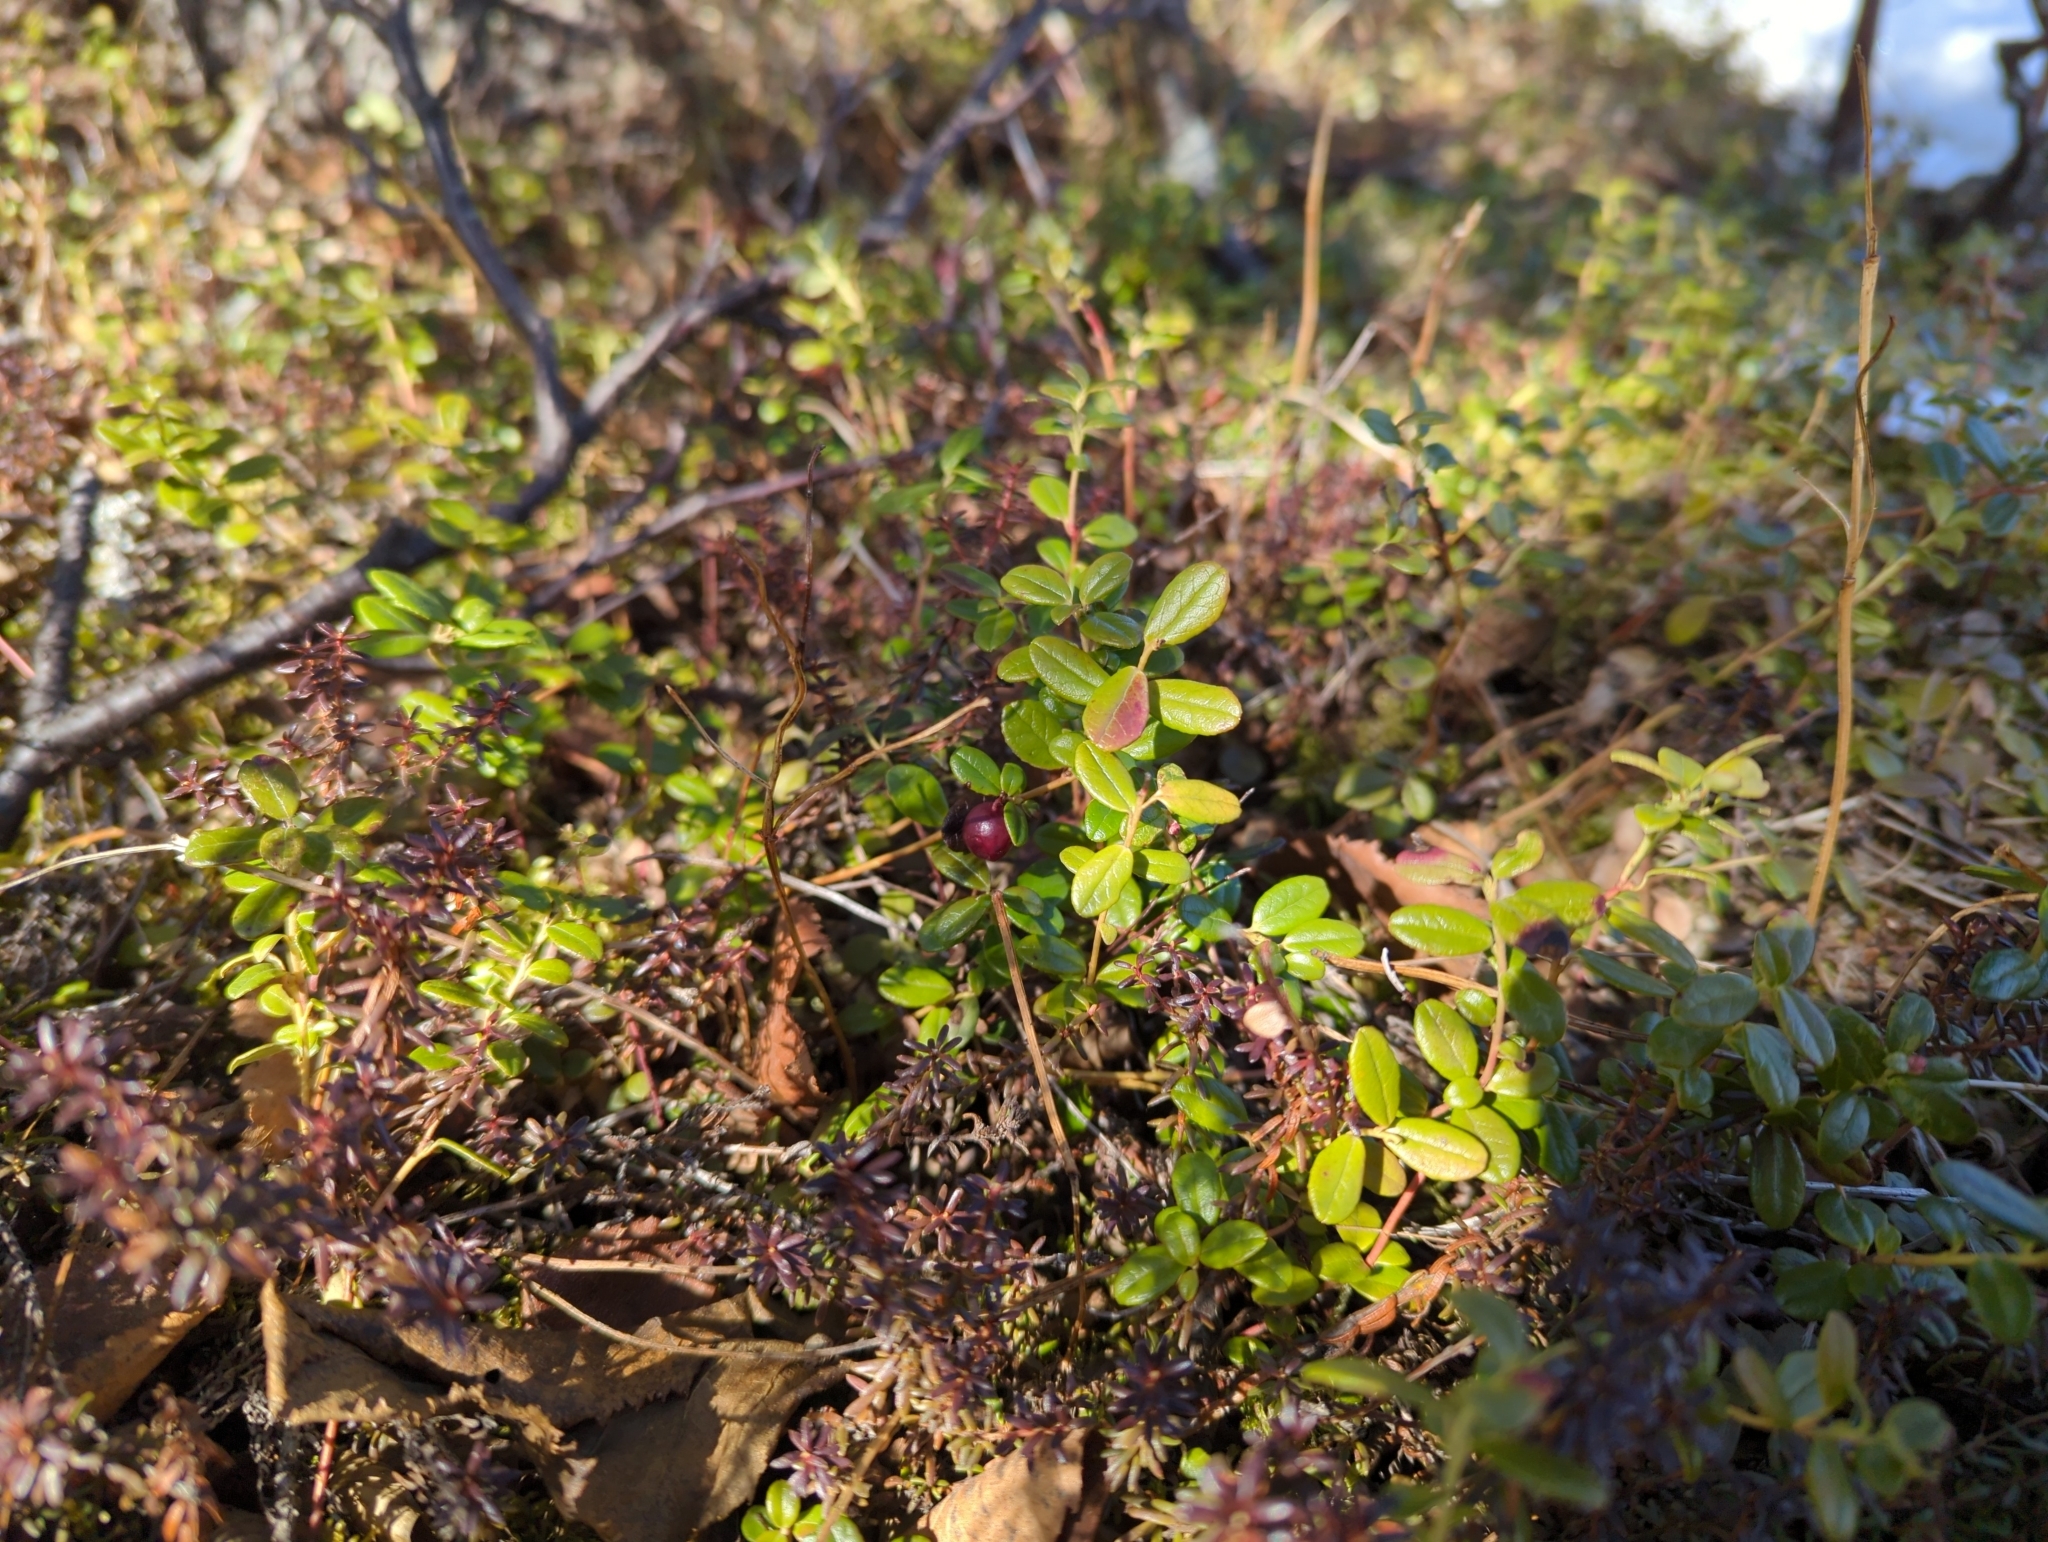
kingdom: Plantae
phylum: Tracheophyta
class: Magnoliopsida
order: Ericales
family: Ericaceae
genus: Vaccinium
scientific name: Vaccinium vitis-idaea
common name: Cowberry
